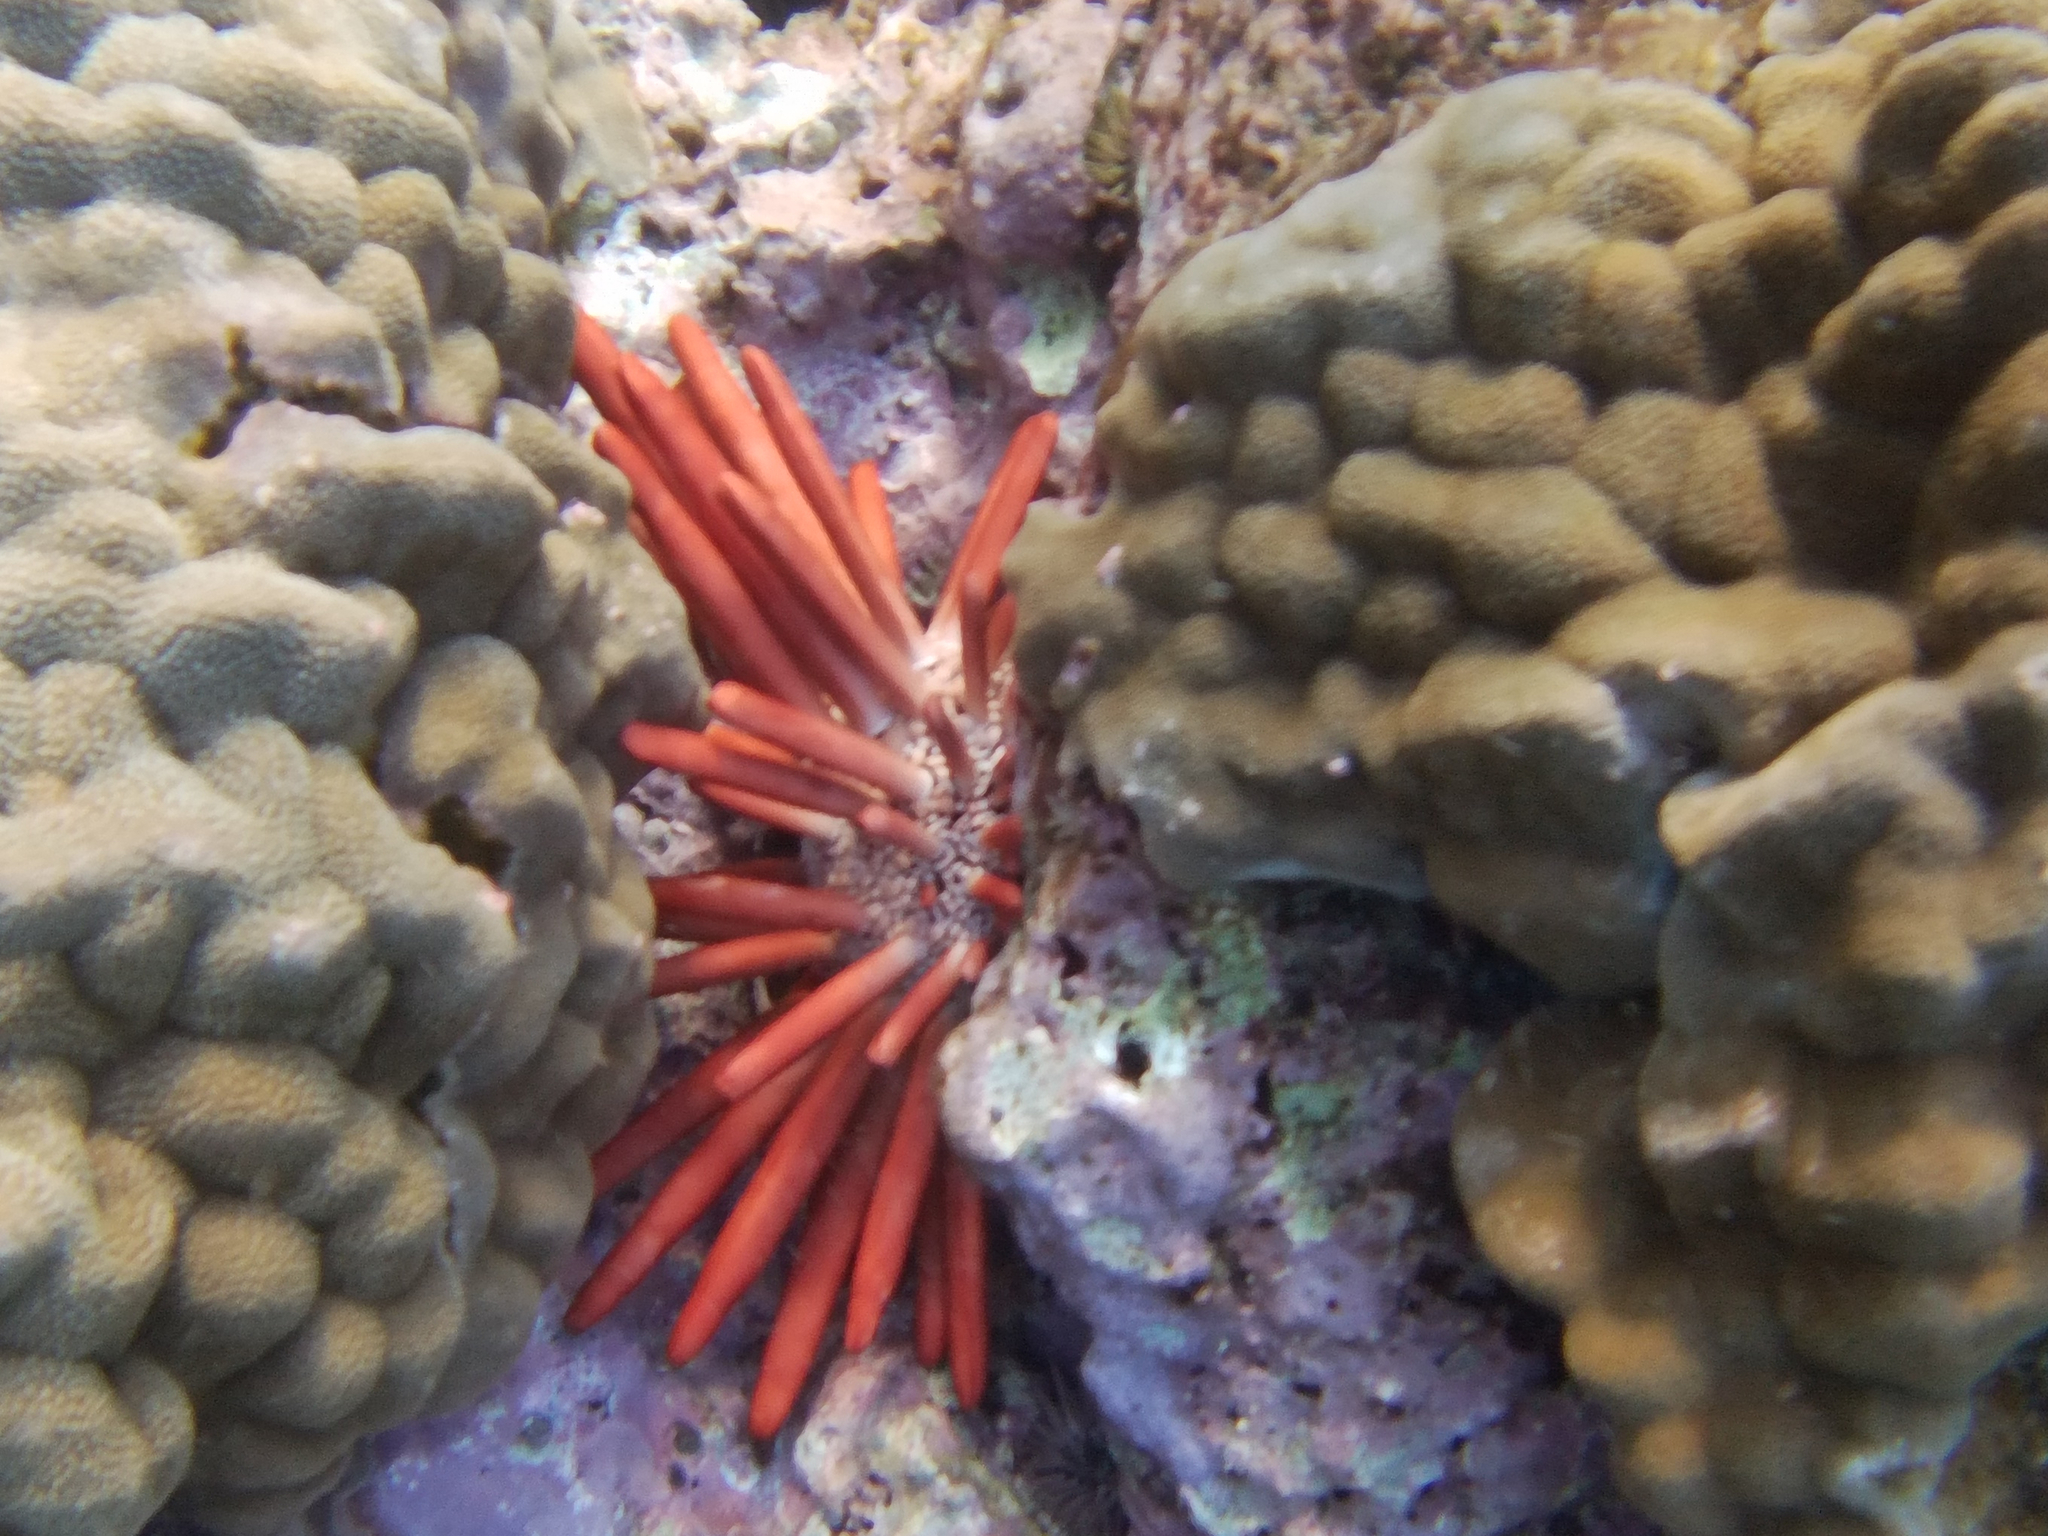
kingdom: Animalia
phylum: Echinodermata
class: Echinoidea
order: Camarodonta
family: Echinometridae
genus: Heterocentrotus
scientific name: Heterocentrotus mamillatus
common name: Slate pencil urchin
